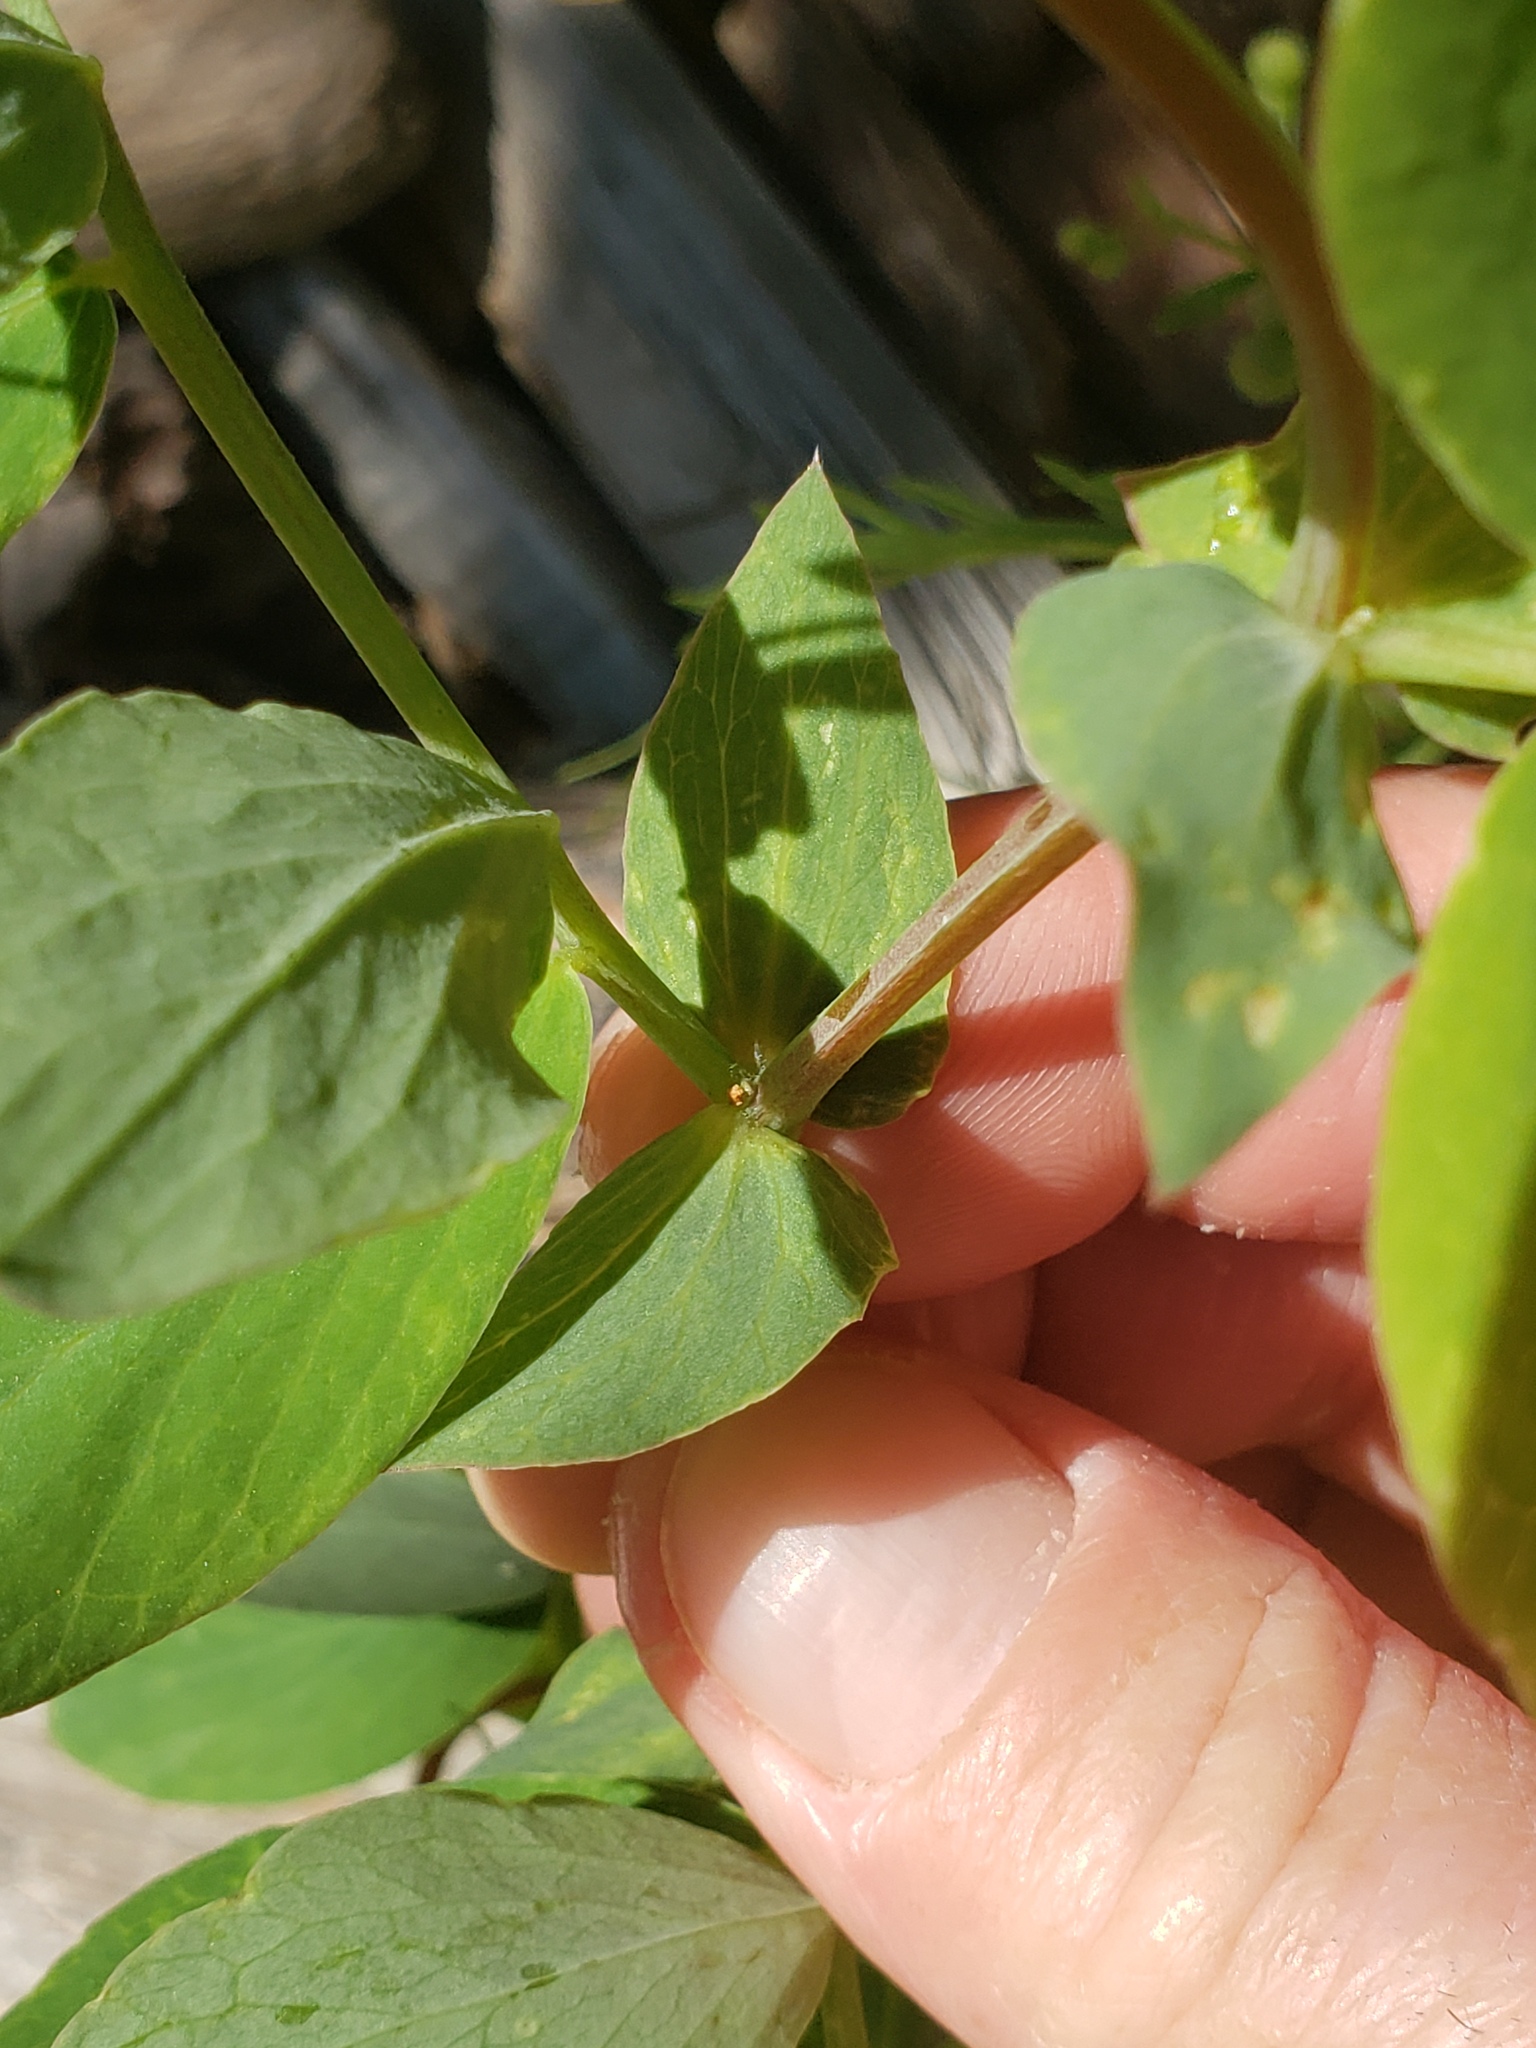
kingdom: Plantae
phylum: Tracheophyta
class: Magnoliopsida
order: Fabales
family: Fabaceae
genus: Lathyrus
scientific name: Lathyrus japonicus
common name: Sea pea
